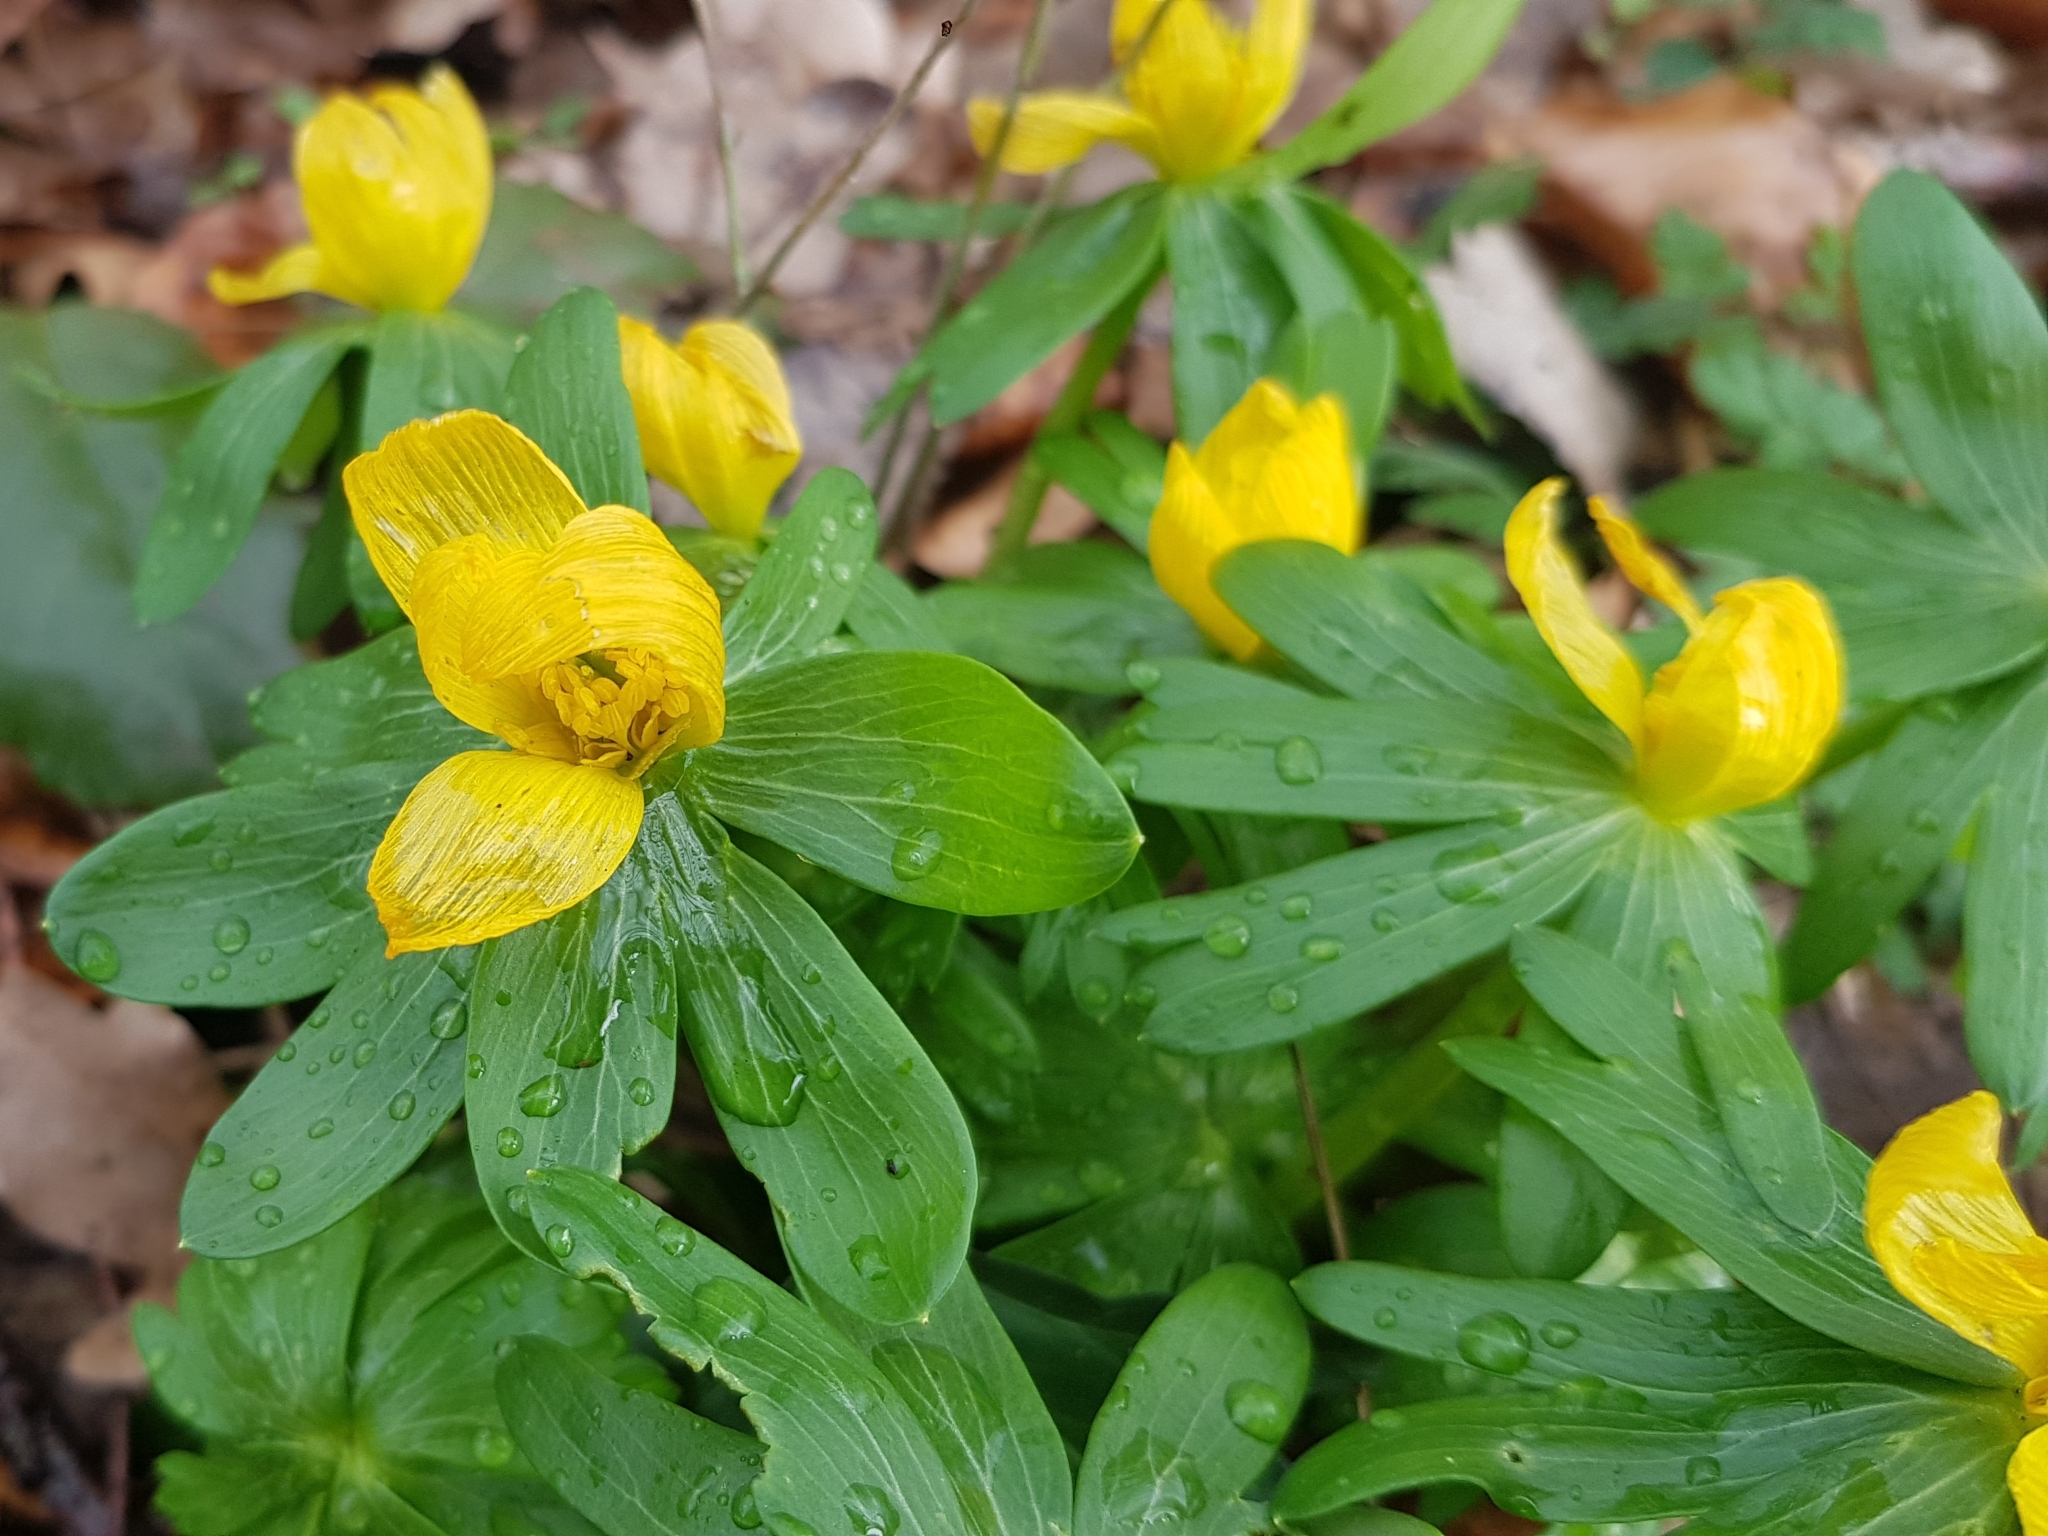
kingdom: Plantae
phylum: Tracheophyta
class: Magnoliopsida
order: Ranunculales
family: Ranunculaceae
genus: Eranthis
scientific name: Eranthis hyemalis
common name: Winter aconite
